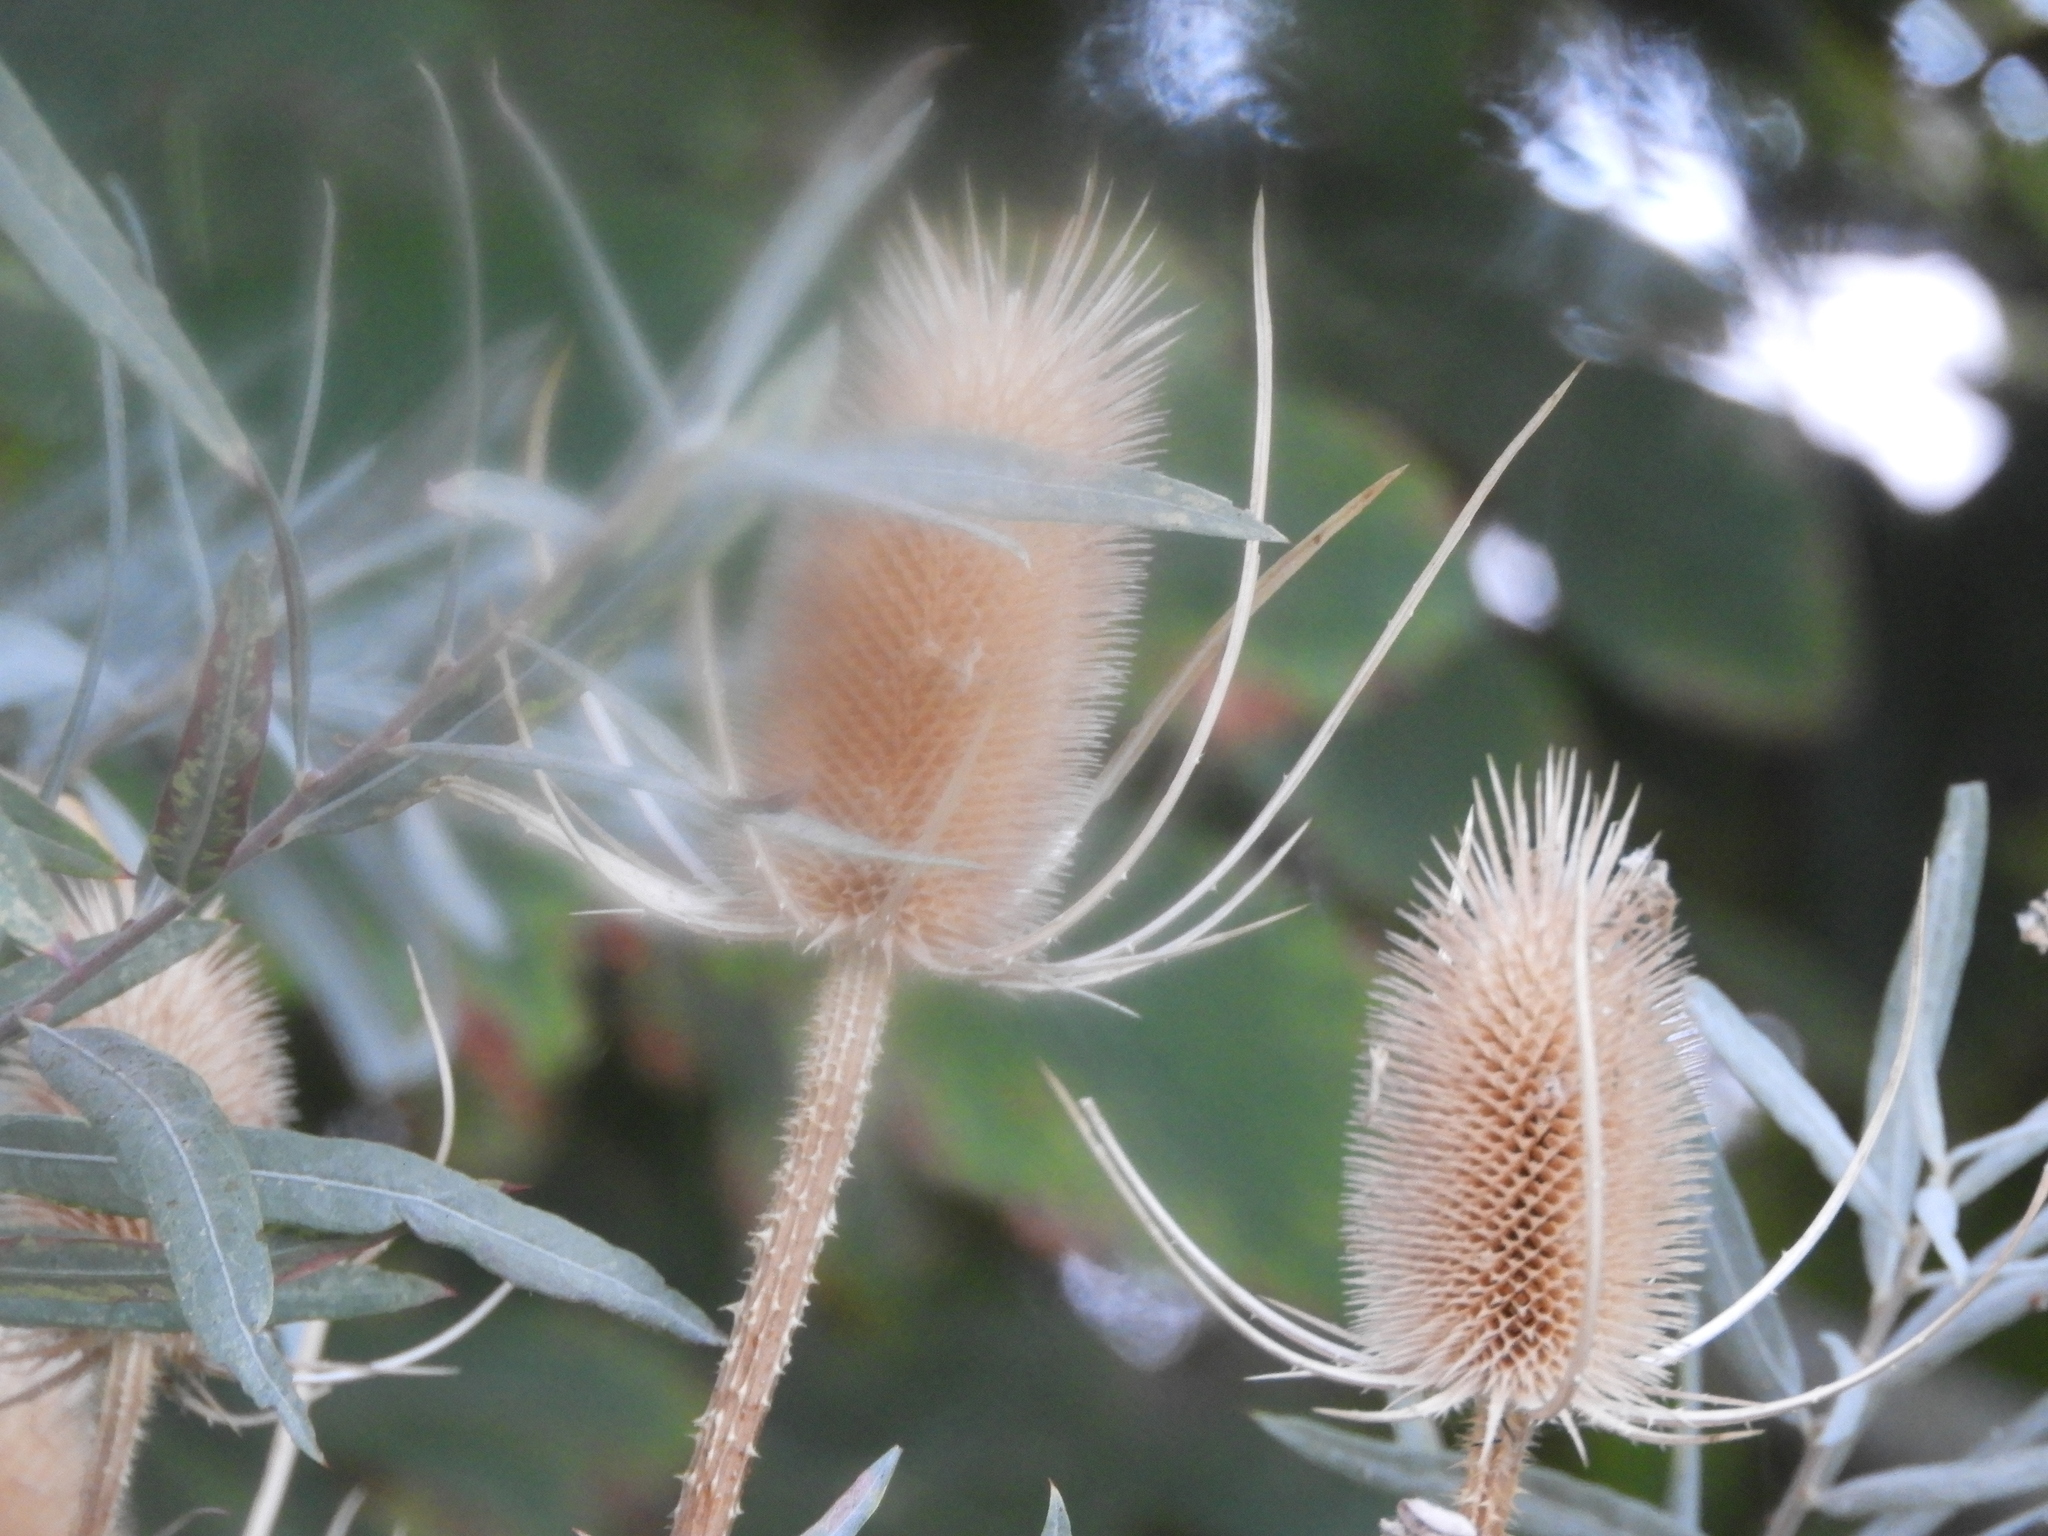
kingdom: Plantae
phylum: Tracheophyta
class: Magnoliopsida
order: Dipsacales
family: Caprifoliaceae
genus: Dipsacus
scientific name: Dipsacus fullonum
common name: Teasel
